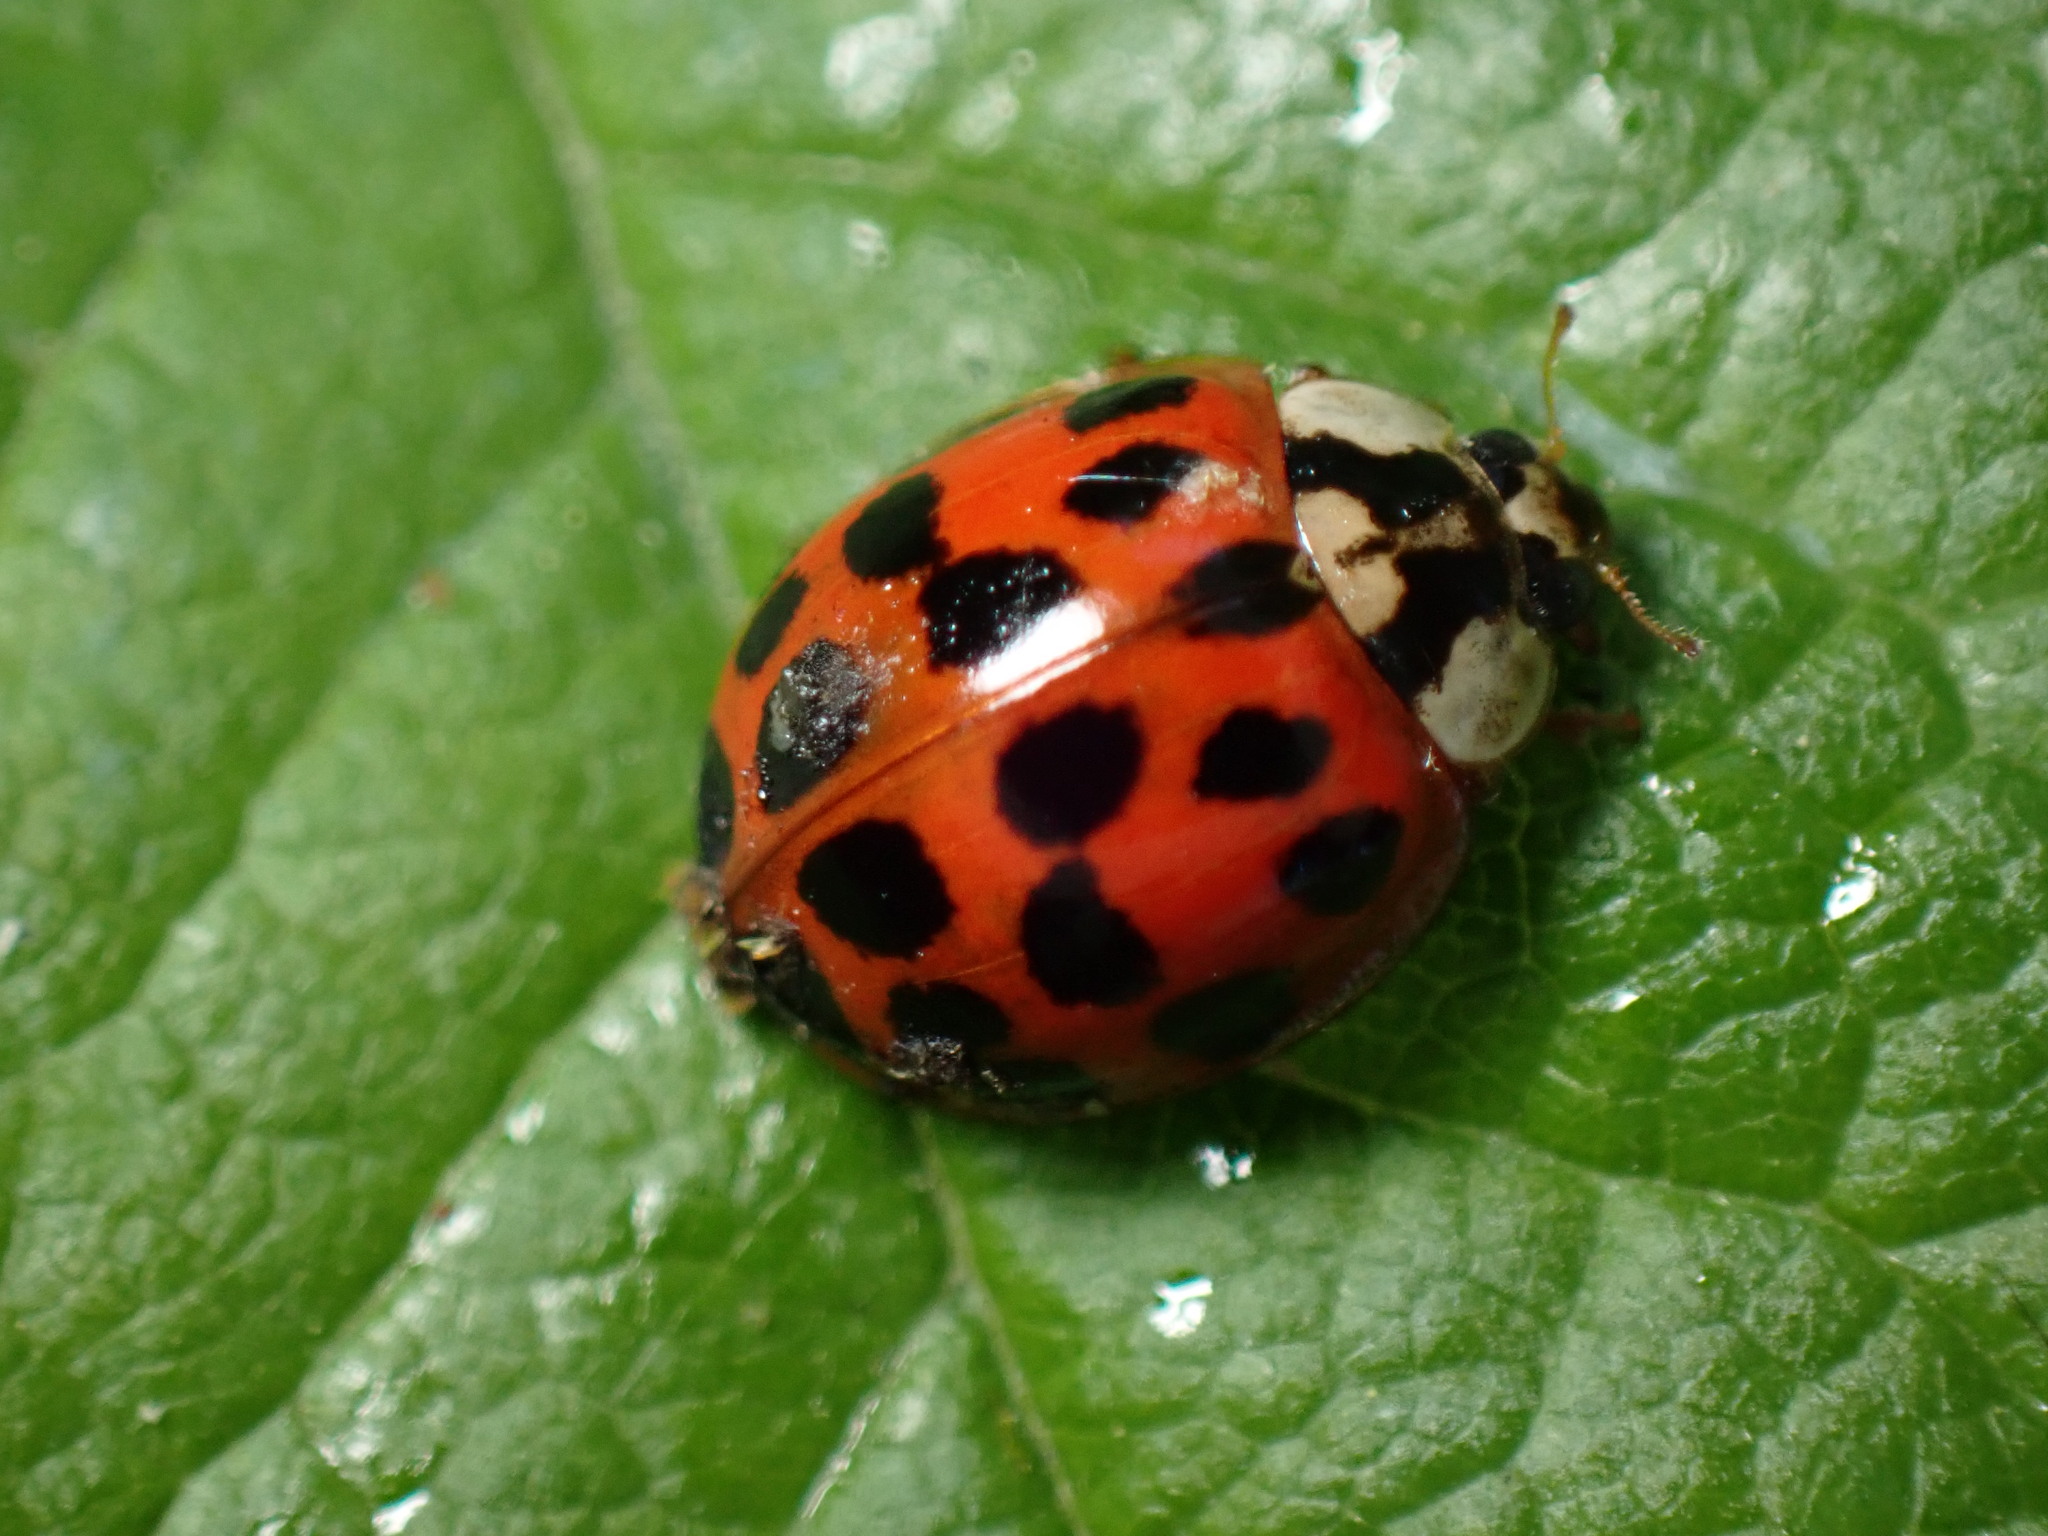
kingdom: Animalia
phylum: Arthropoda
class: Insecta
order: Coleoptera
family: Coccinellidae
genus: Harmonia
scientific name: Harmonia axyridis
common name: Harlequin ladybird
